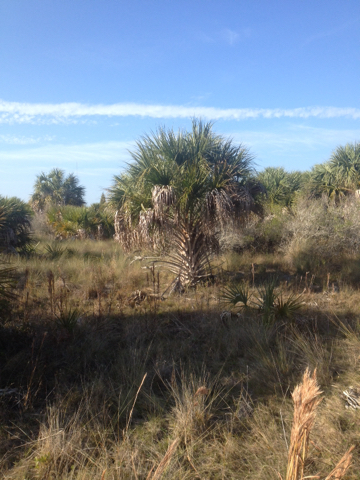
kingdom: Plantae
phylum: Tracheophyta
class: Liliopsida
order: Arecales
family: Arecaceae
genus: Sabal
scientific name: Sabal palmetto
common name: Blue palmetto
